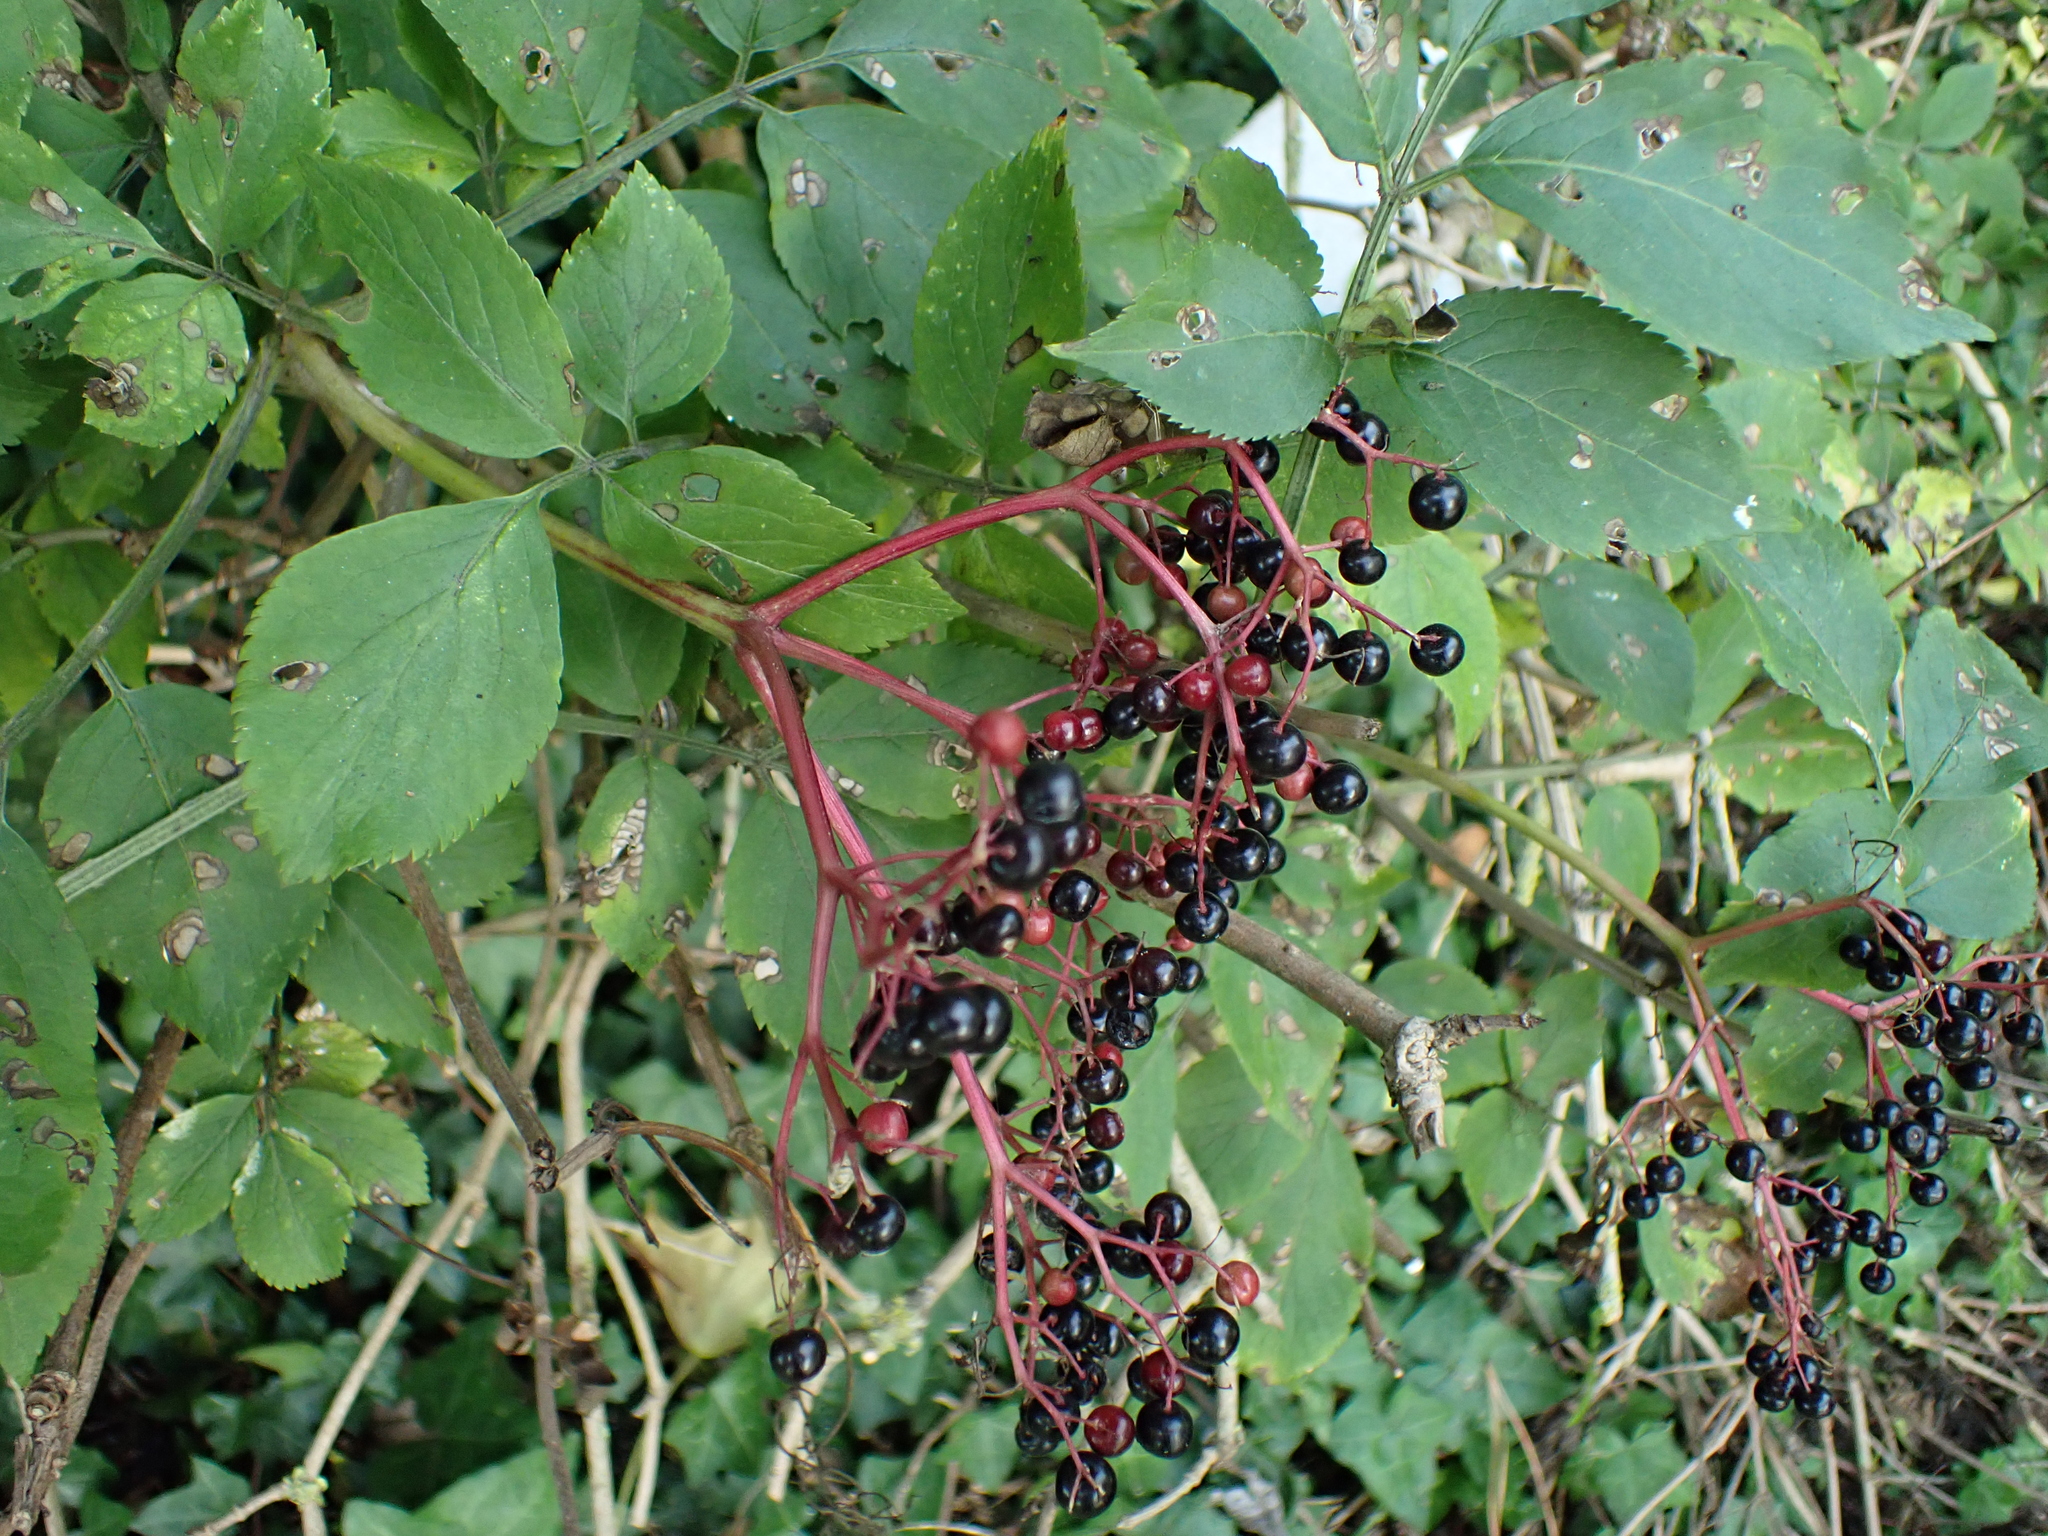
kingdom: Plantae
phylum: Tracheophyta
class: Magnoliopsida
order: Dipsacales
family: Viburnaceae
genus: Sambucus
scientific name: Sambucus nigra
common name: Elder
